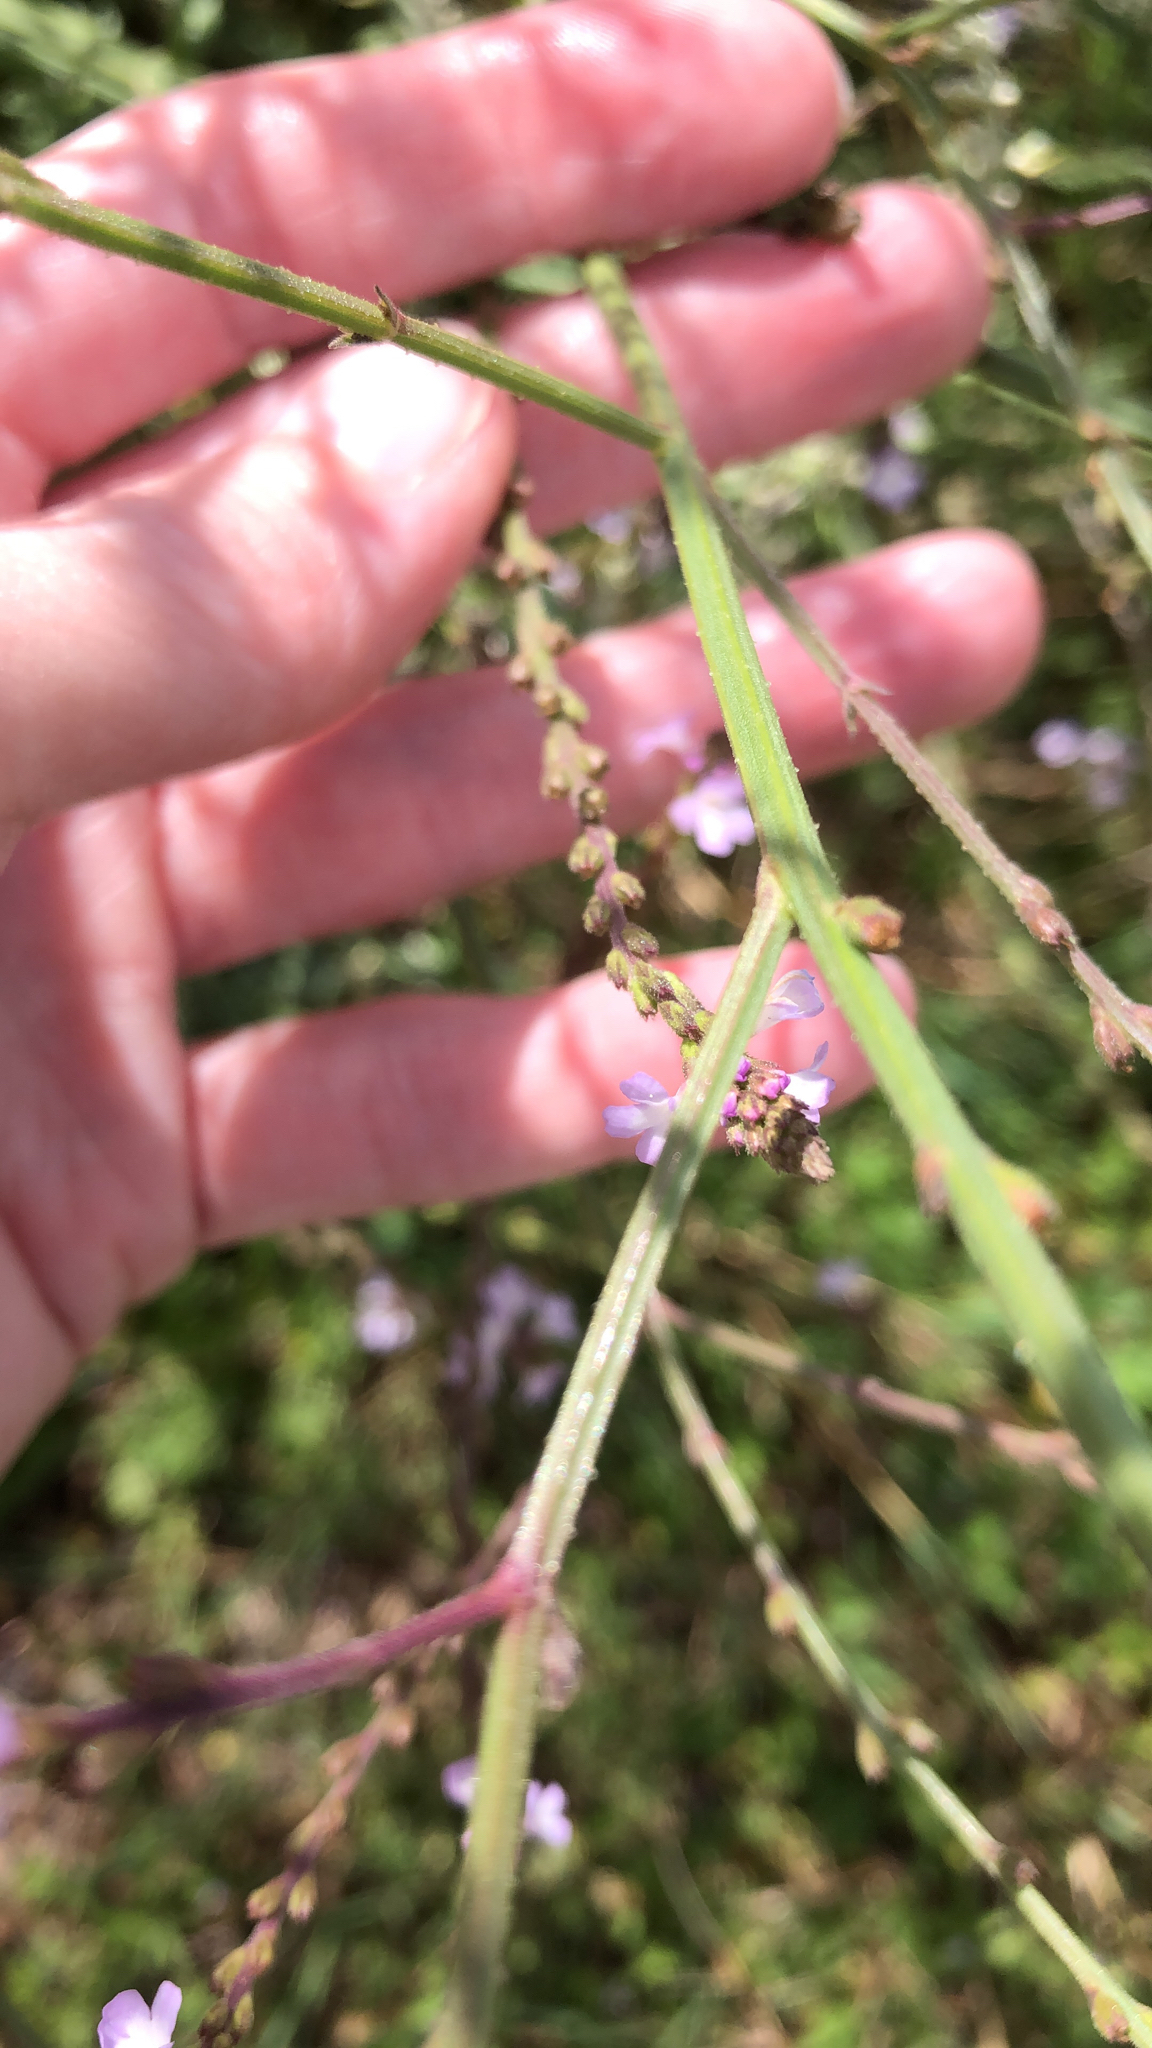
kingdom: Plantae
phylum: Tracheophyta
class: Magnoliopsida
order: Lamiales
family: Verbenaceae
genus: Verbena
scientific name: Verbena officinalis
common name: Vervain
